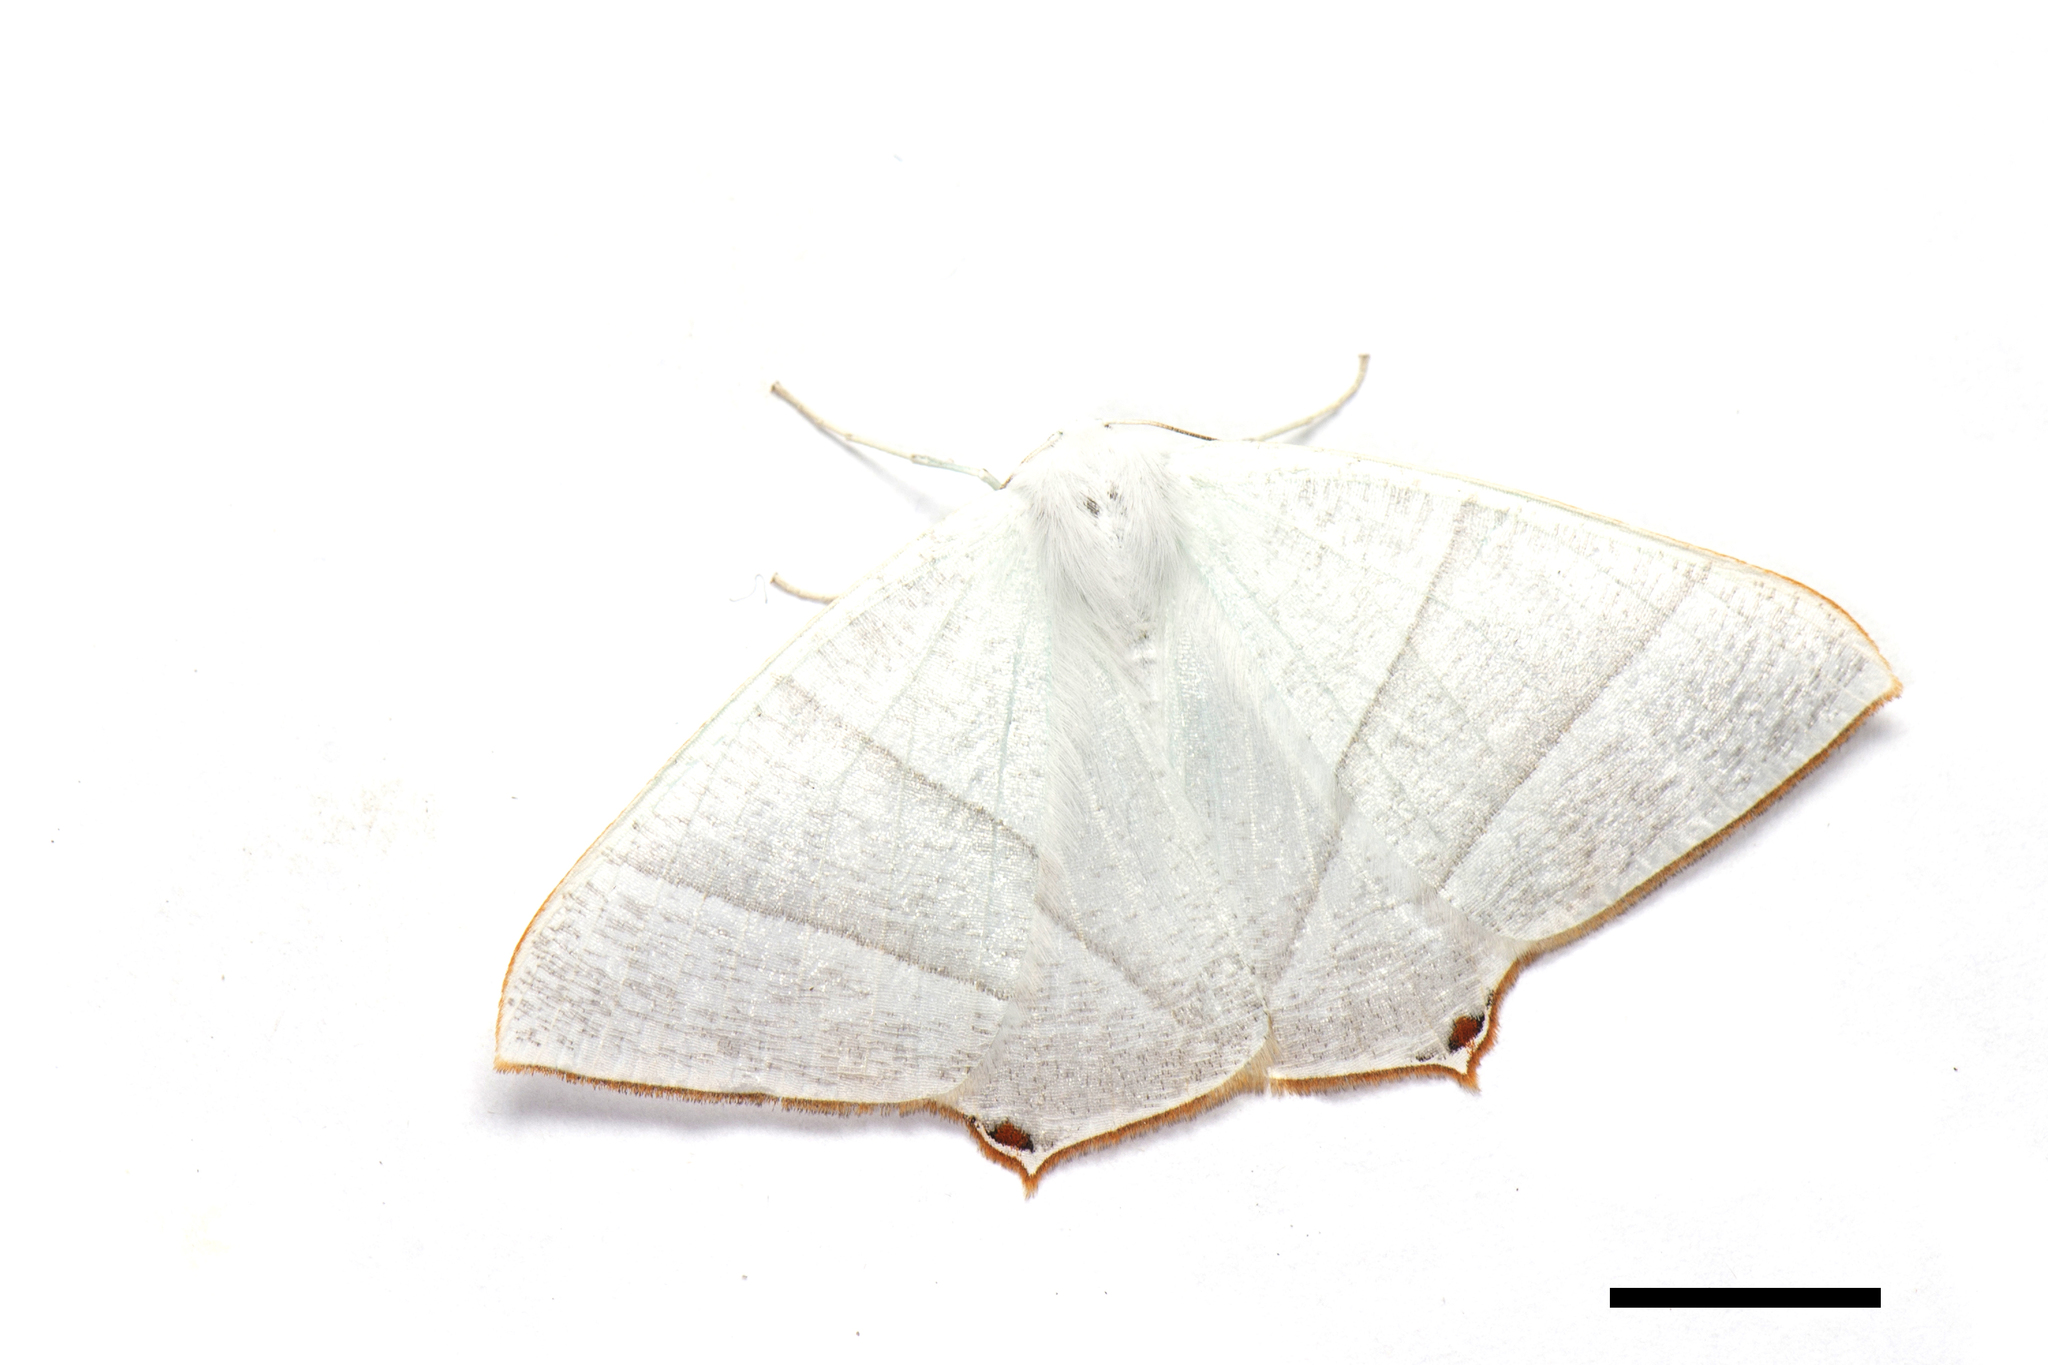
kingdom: Animalia
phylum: Arthropoda
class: Insecta
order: Lepidoptera
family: Geometridae
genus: Ourapteryx
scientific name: Ourapteryx caecata
